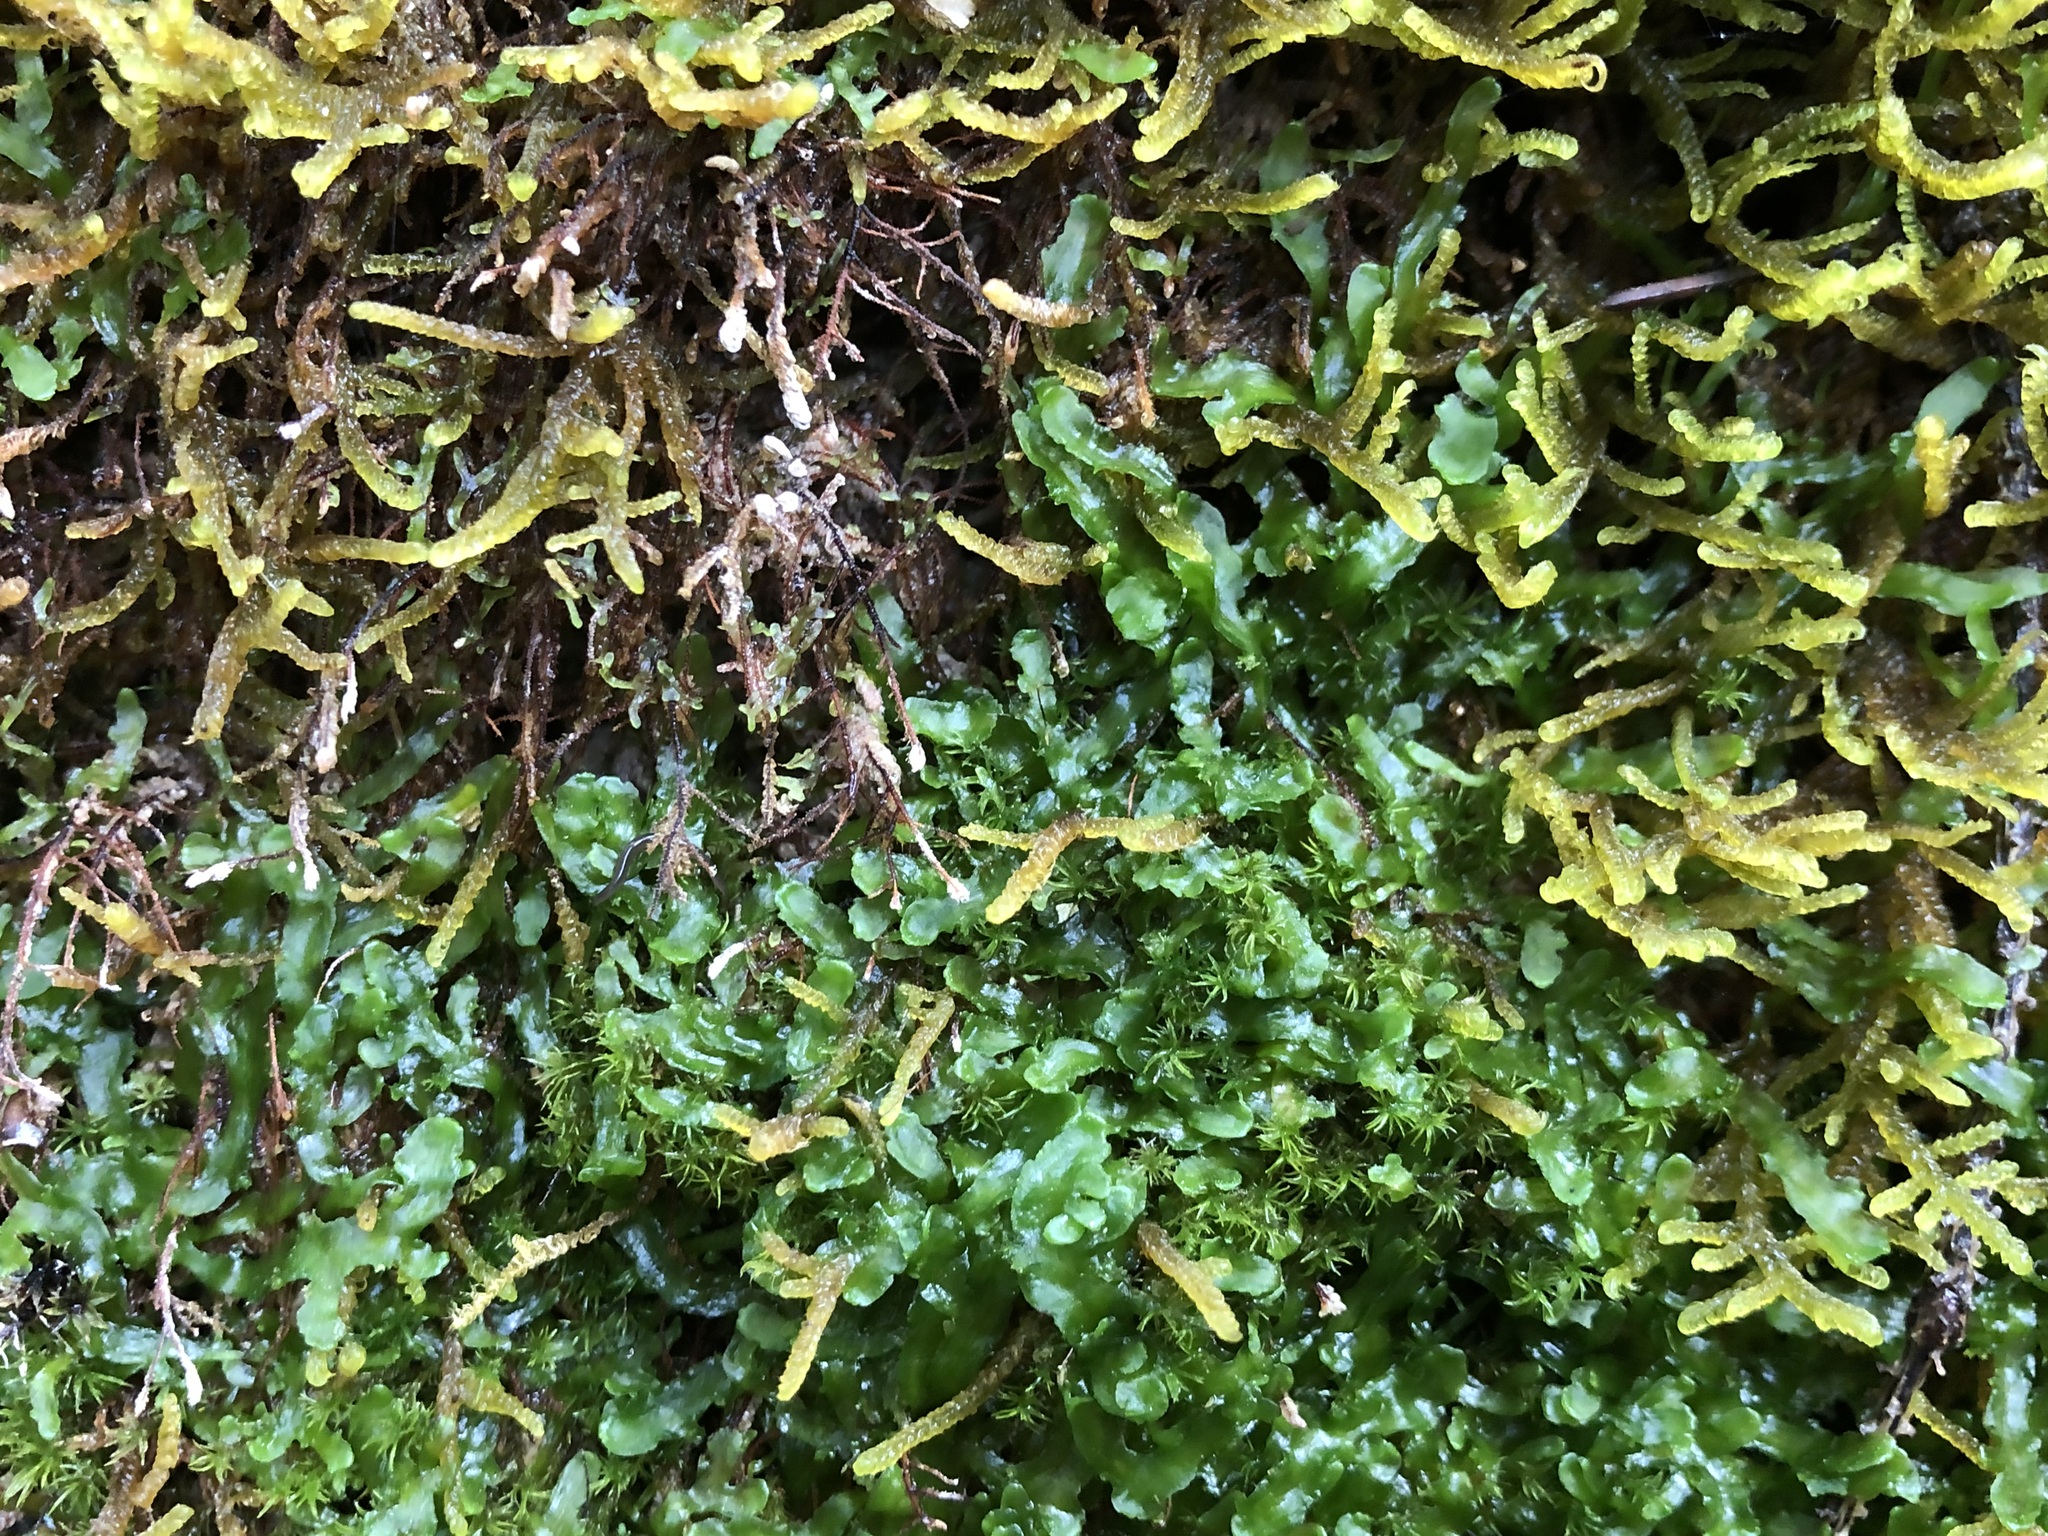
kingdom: Plantae
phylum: Marchantiophyta
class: Jungermanniopsida
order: Metzgeriales
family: Aneuraceae
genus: Aneura
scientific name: Aneura pinguis
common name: Common greasewort
